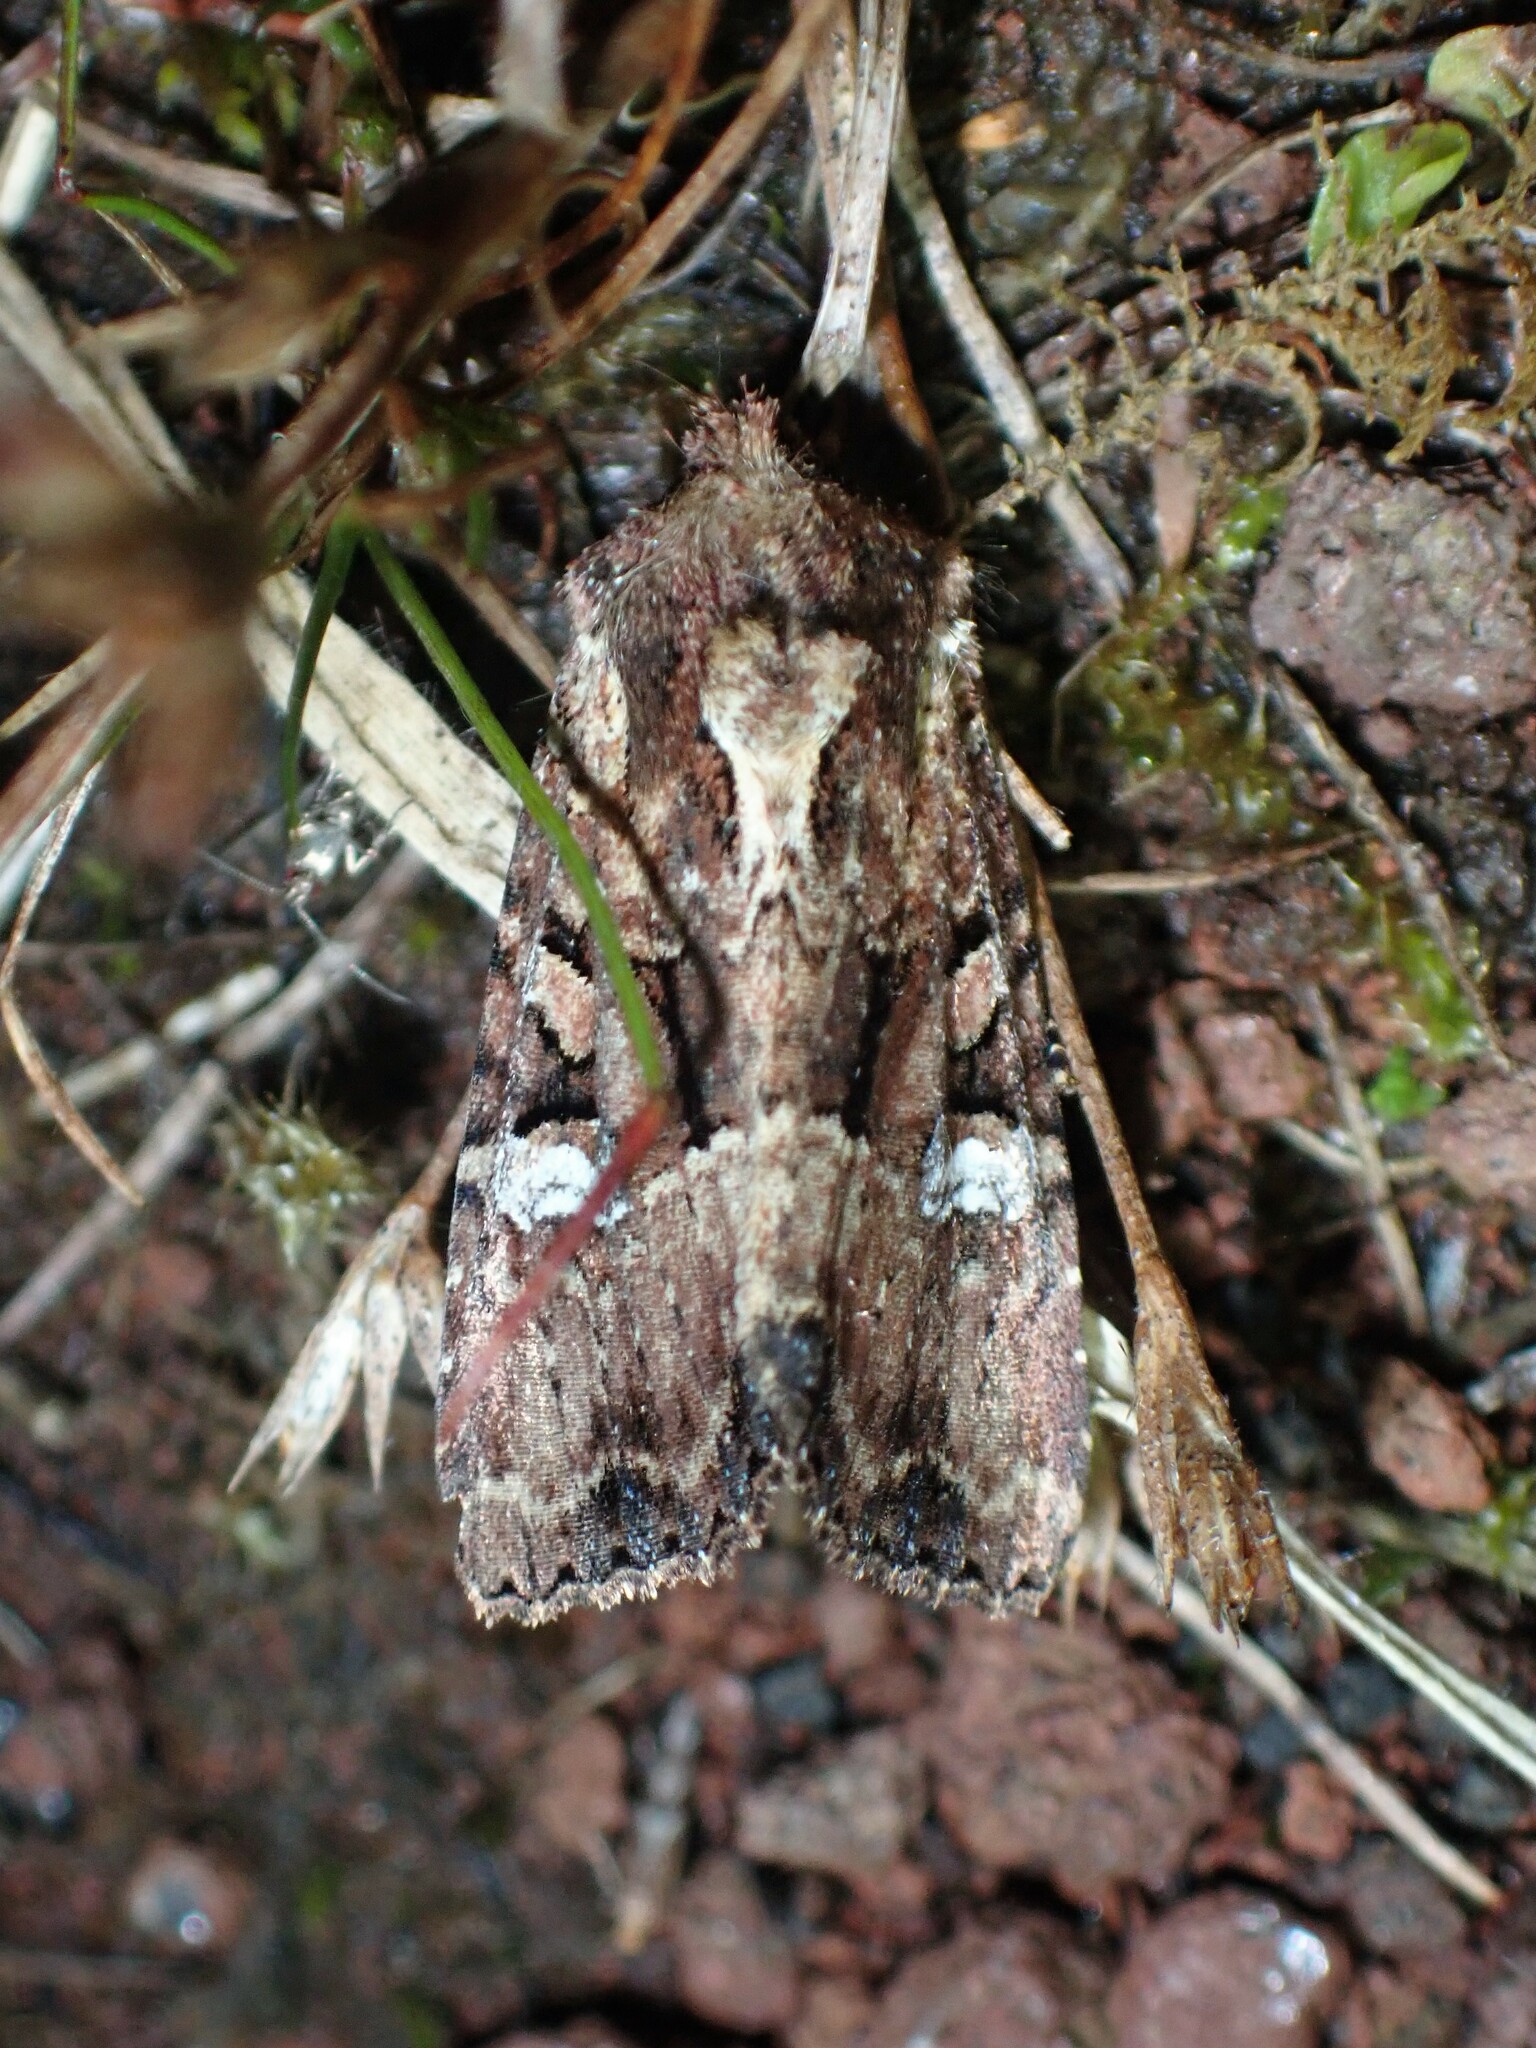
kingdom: Animalia
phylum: Arthropoda
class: Insecta
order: Lepidoptera
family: Noctuidae
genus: Mesapamea
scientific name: Mesapamea storai
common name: Owlet moth
